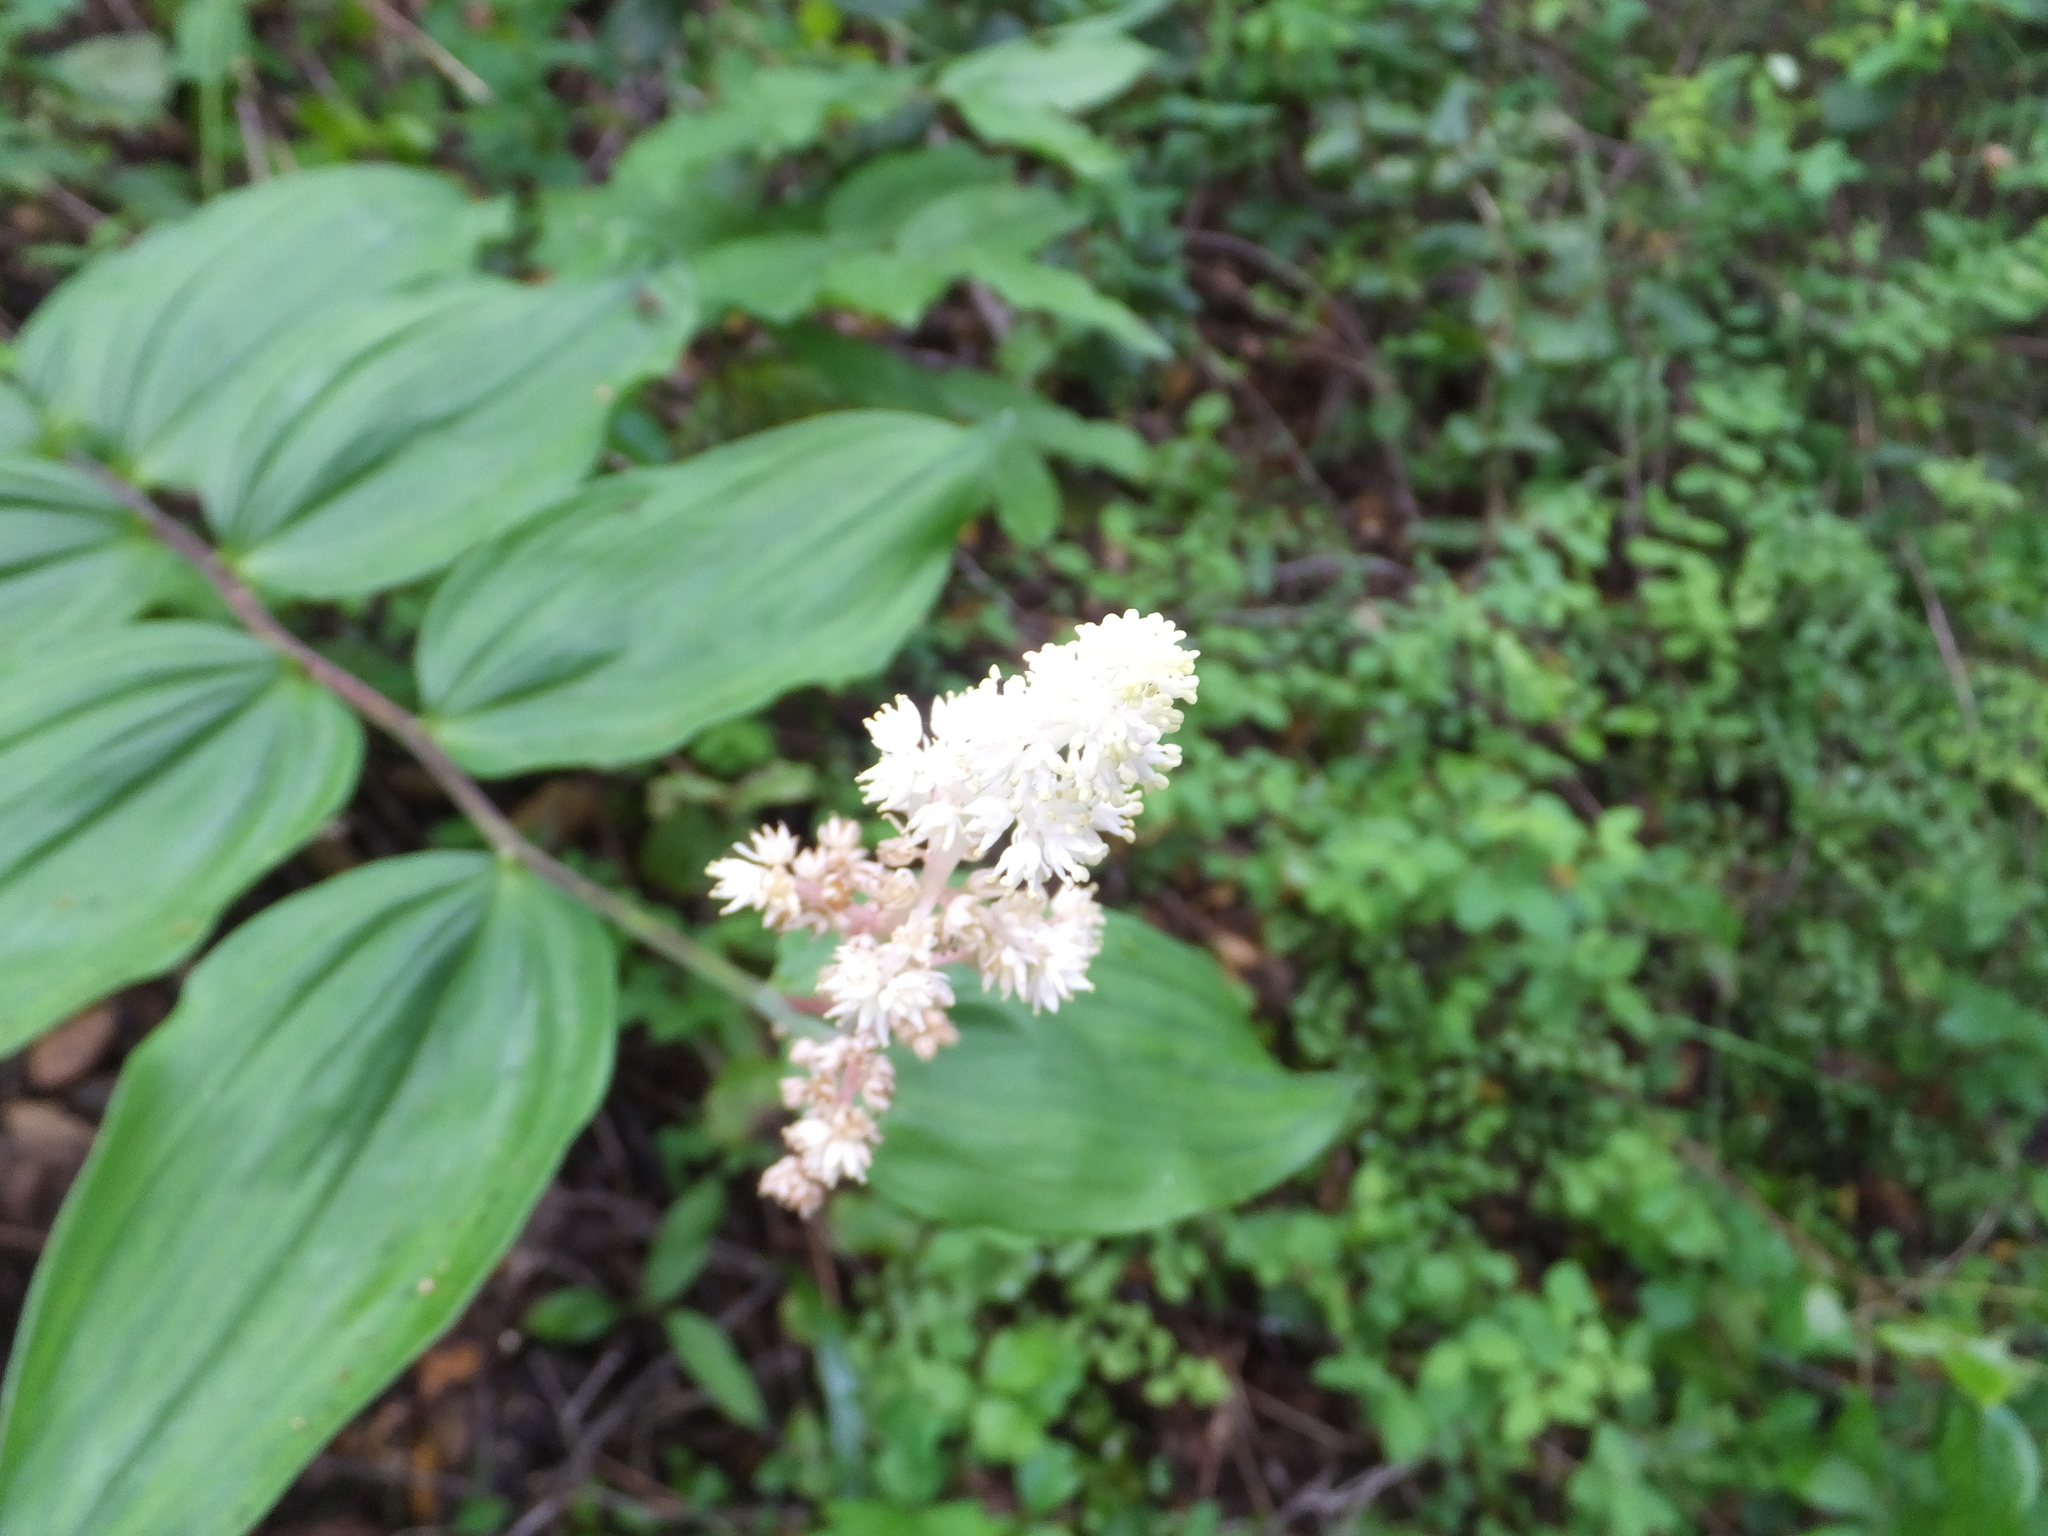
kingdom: Plantae
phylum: Tracheophyta
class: Liliopsida
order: Asparagales
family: Asparagaceae
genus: Maianthemum
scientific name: Maianthemum racemosum
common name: False spikenard
